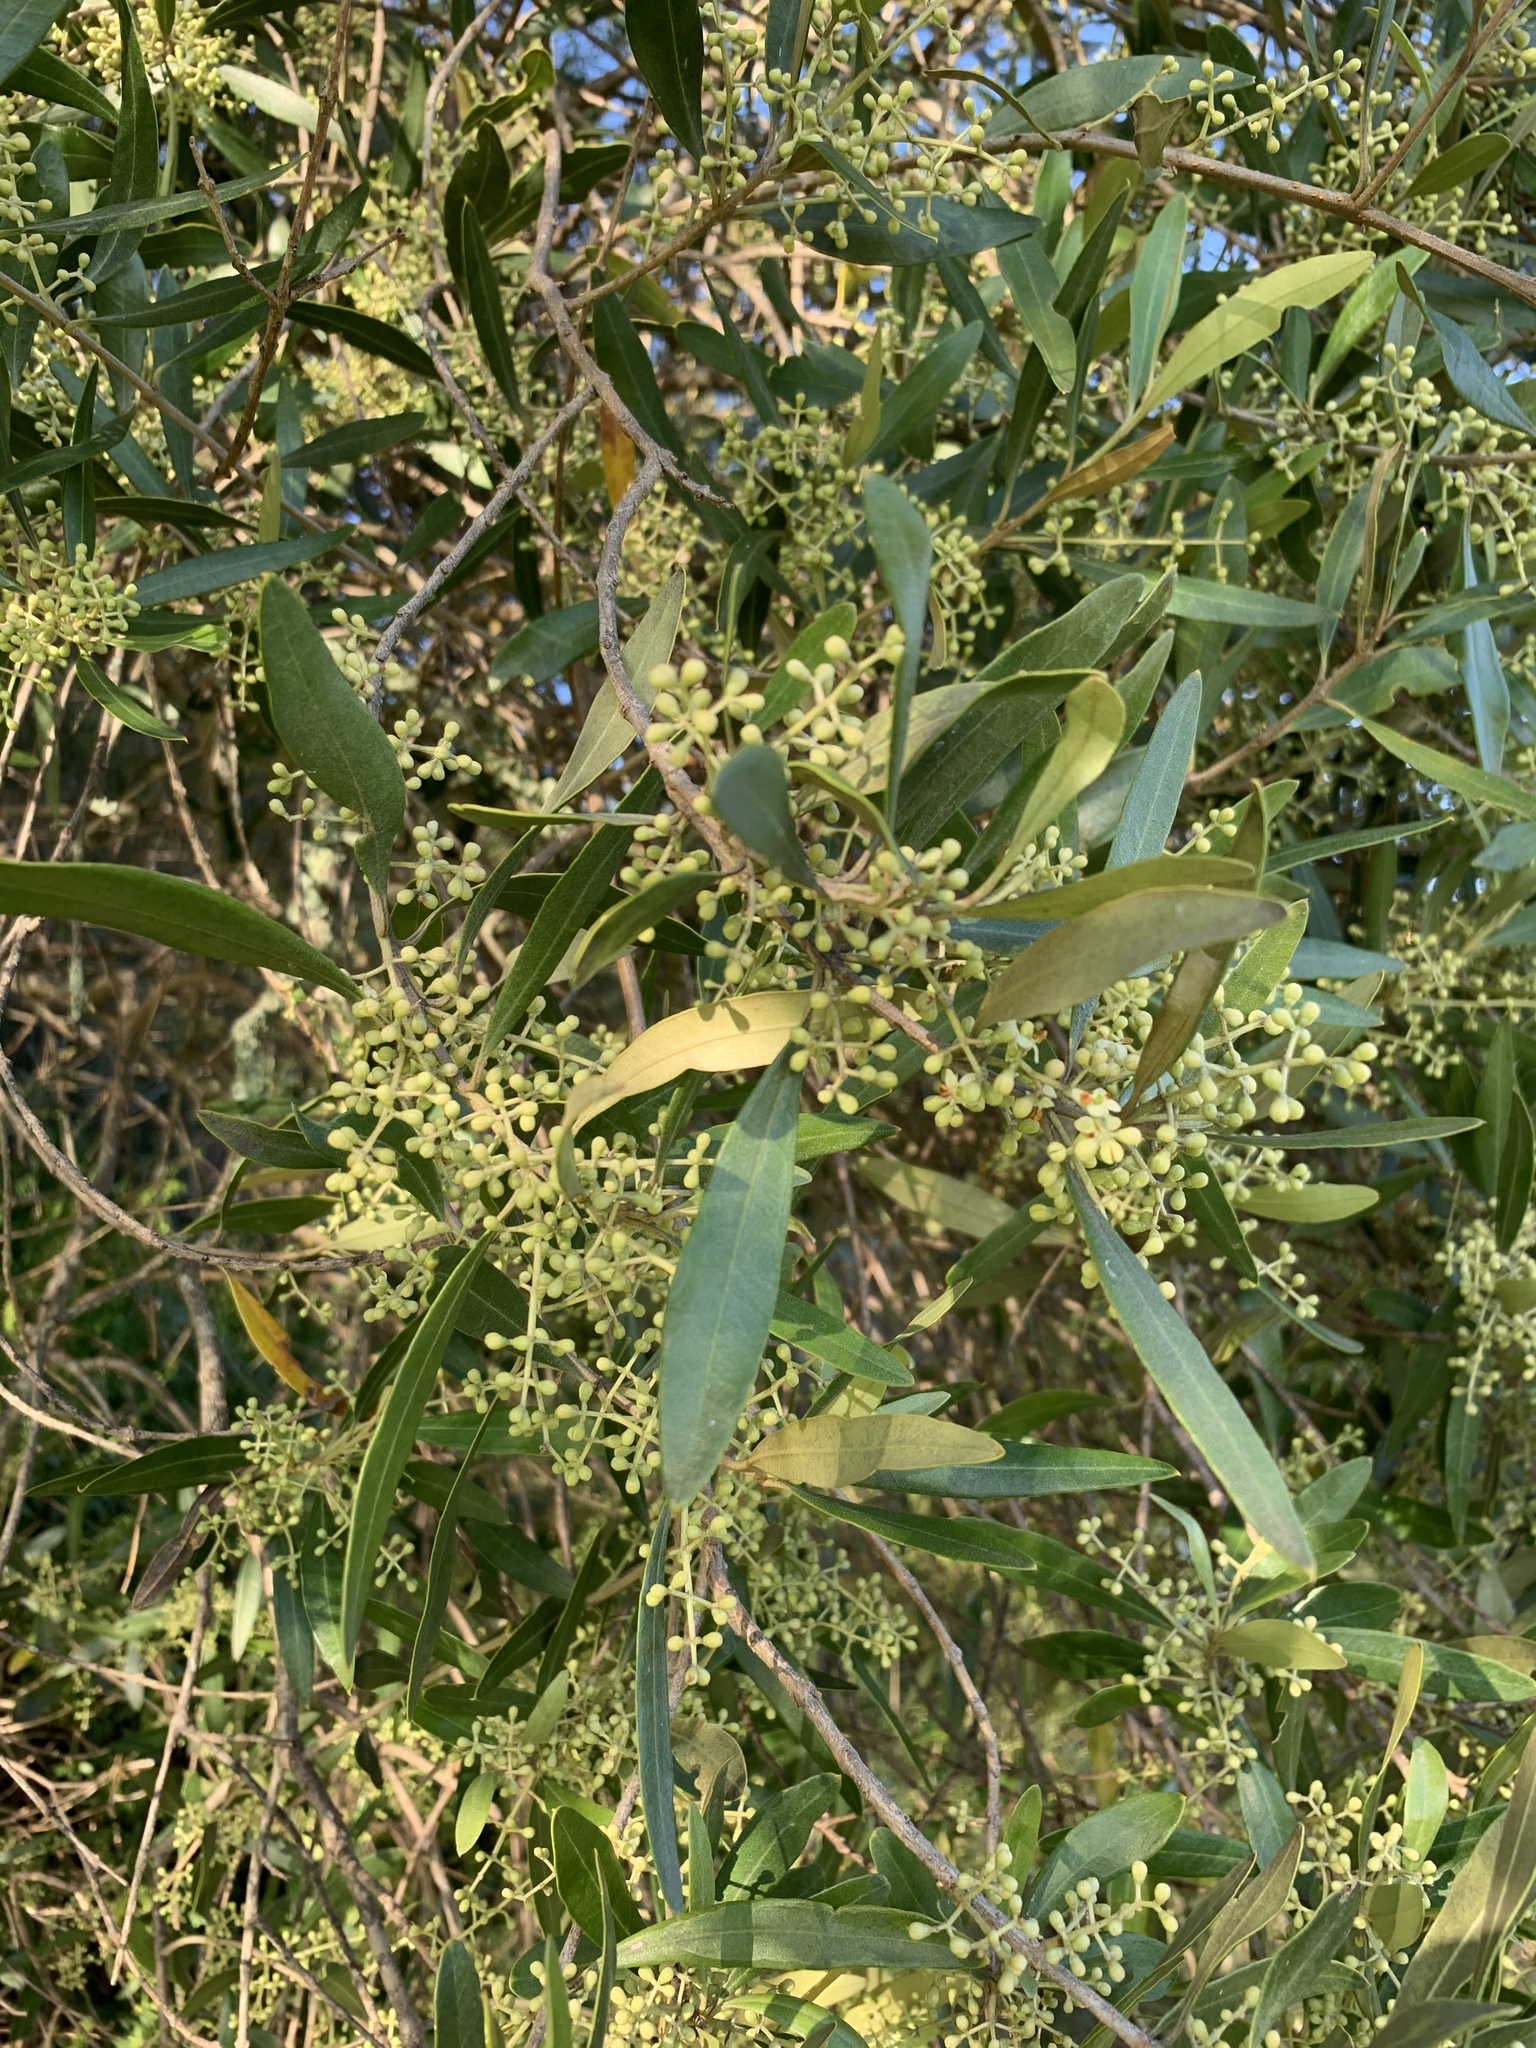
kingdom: Plantae
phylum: Tracheophyta
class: Magnoliopsida
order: Lamiales
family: Oleaceae
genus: Olea
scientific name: Olea europaea
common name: Olive
